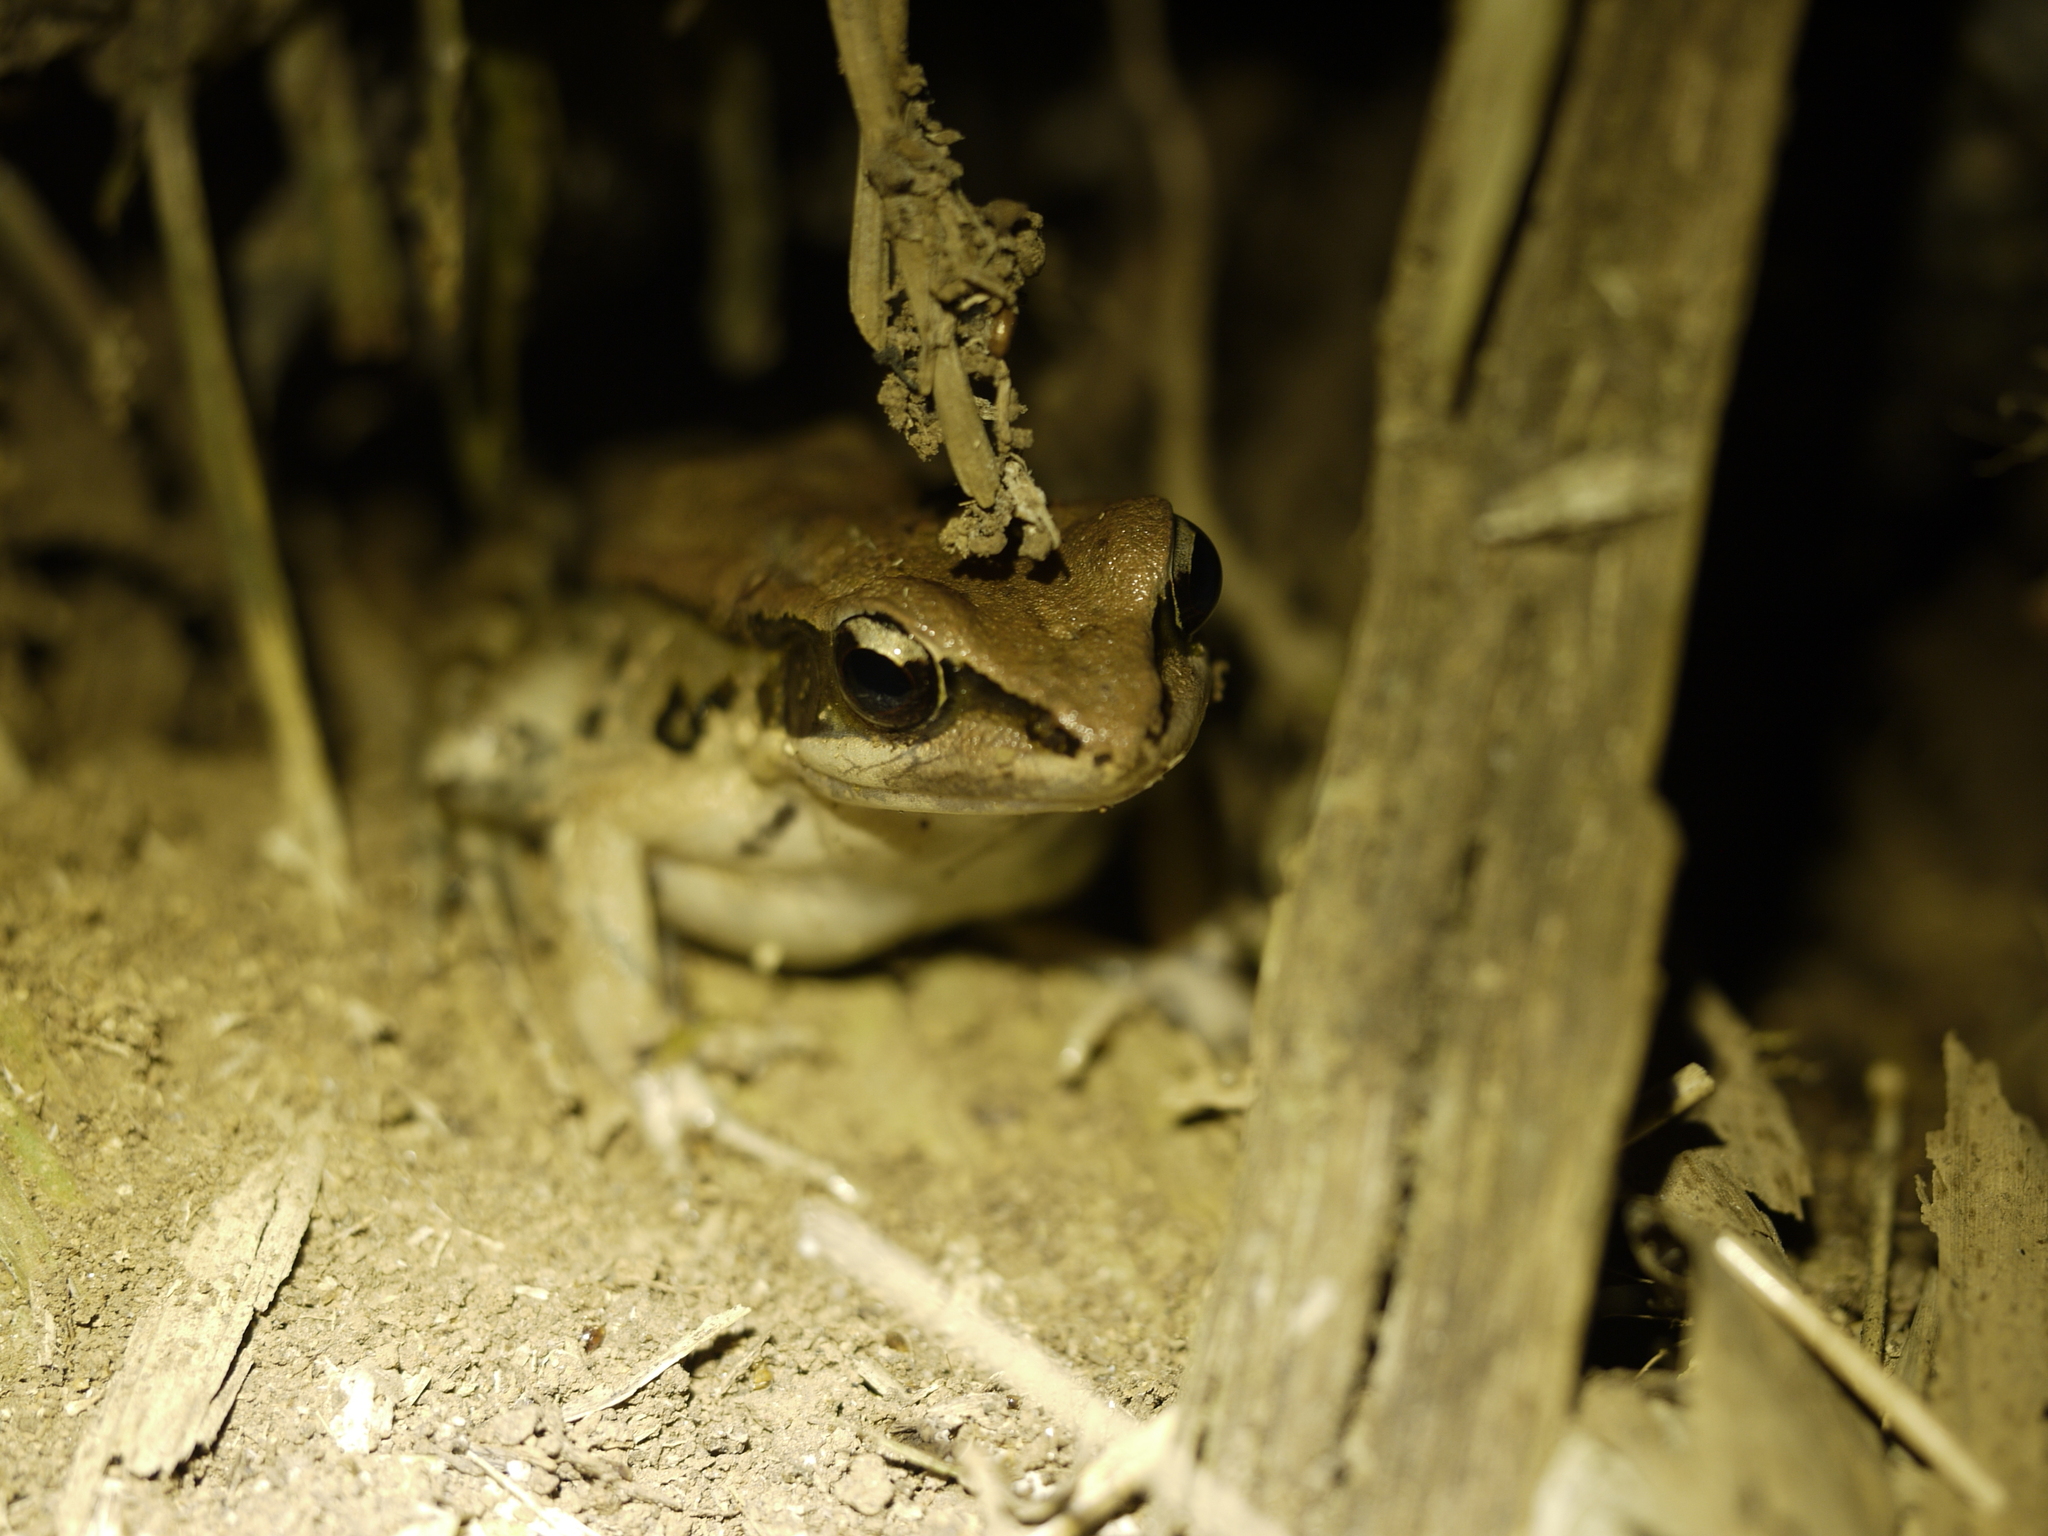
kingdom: Animalia
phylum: Chordata
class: Amphibia
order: Anura
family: Ranidae
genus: Hylarana
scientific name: Hylarana latouchii
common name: Broad-folded frog
